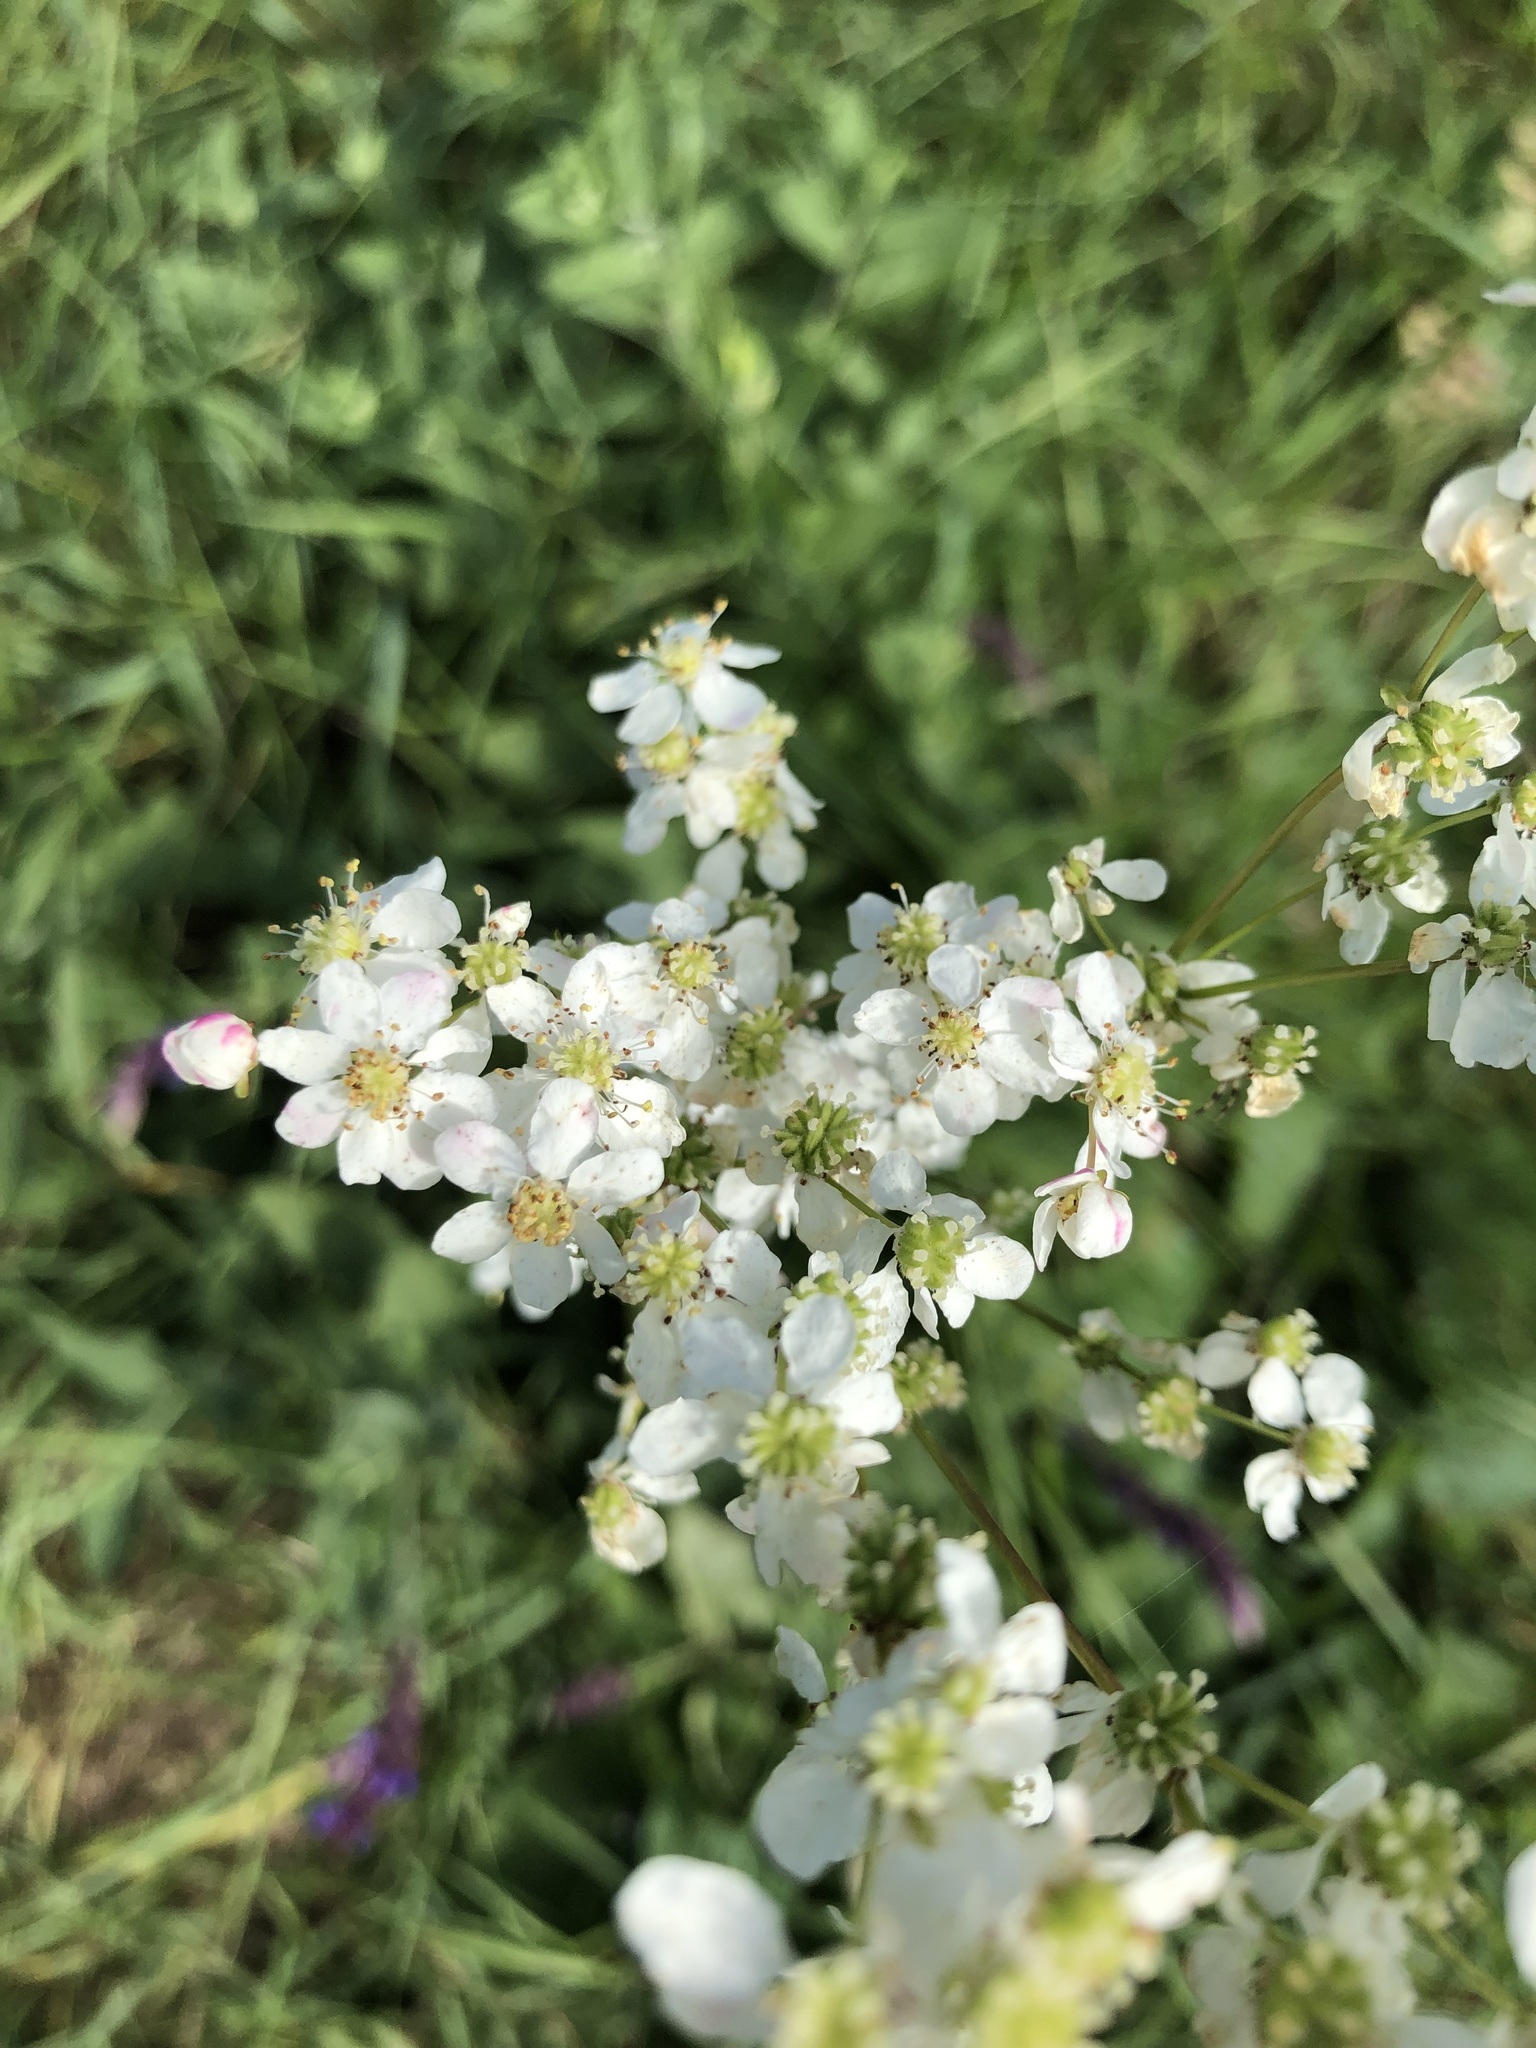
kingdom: Plantae
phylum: Tracheophyta
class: Magnoliopsida
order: Rosales
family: Rosaceae
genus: Filipendula
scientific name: Filipendula vulgaris
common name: Dropwort
